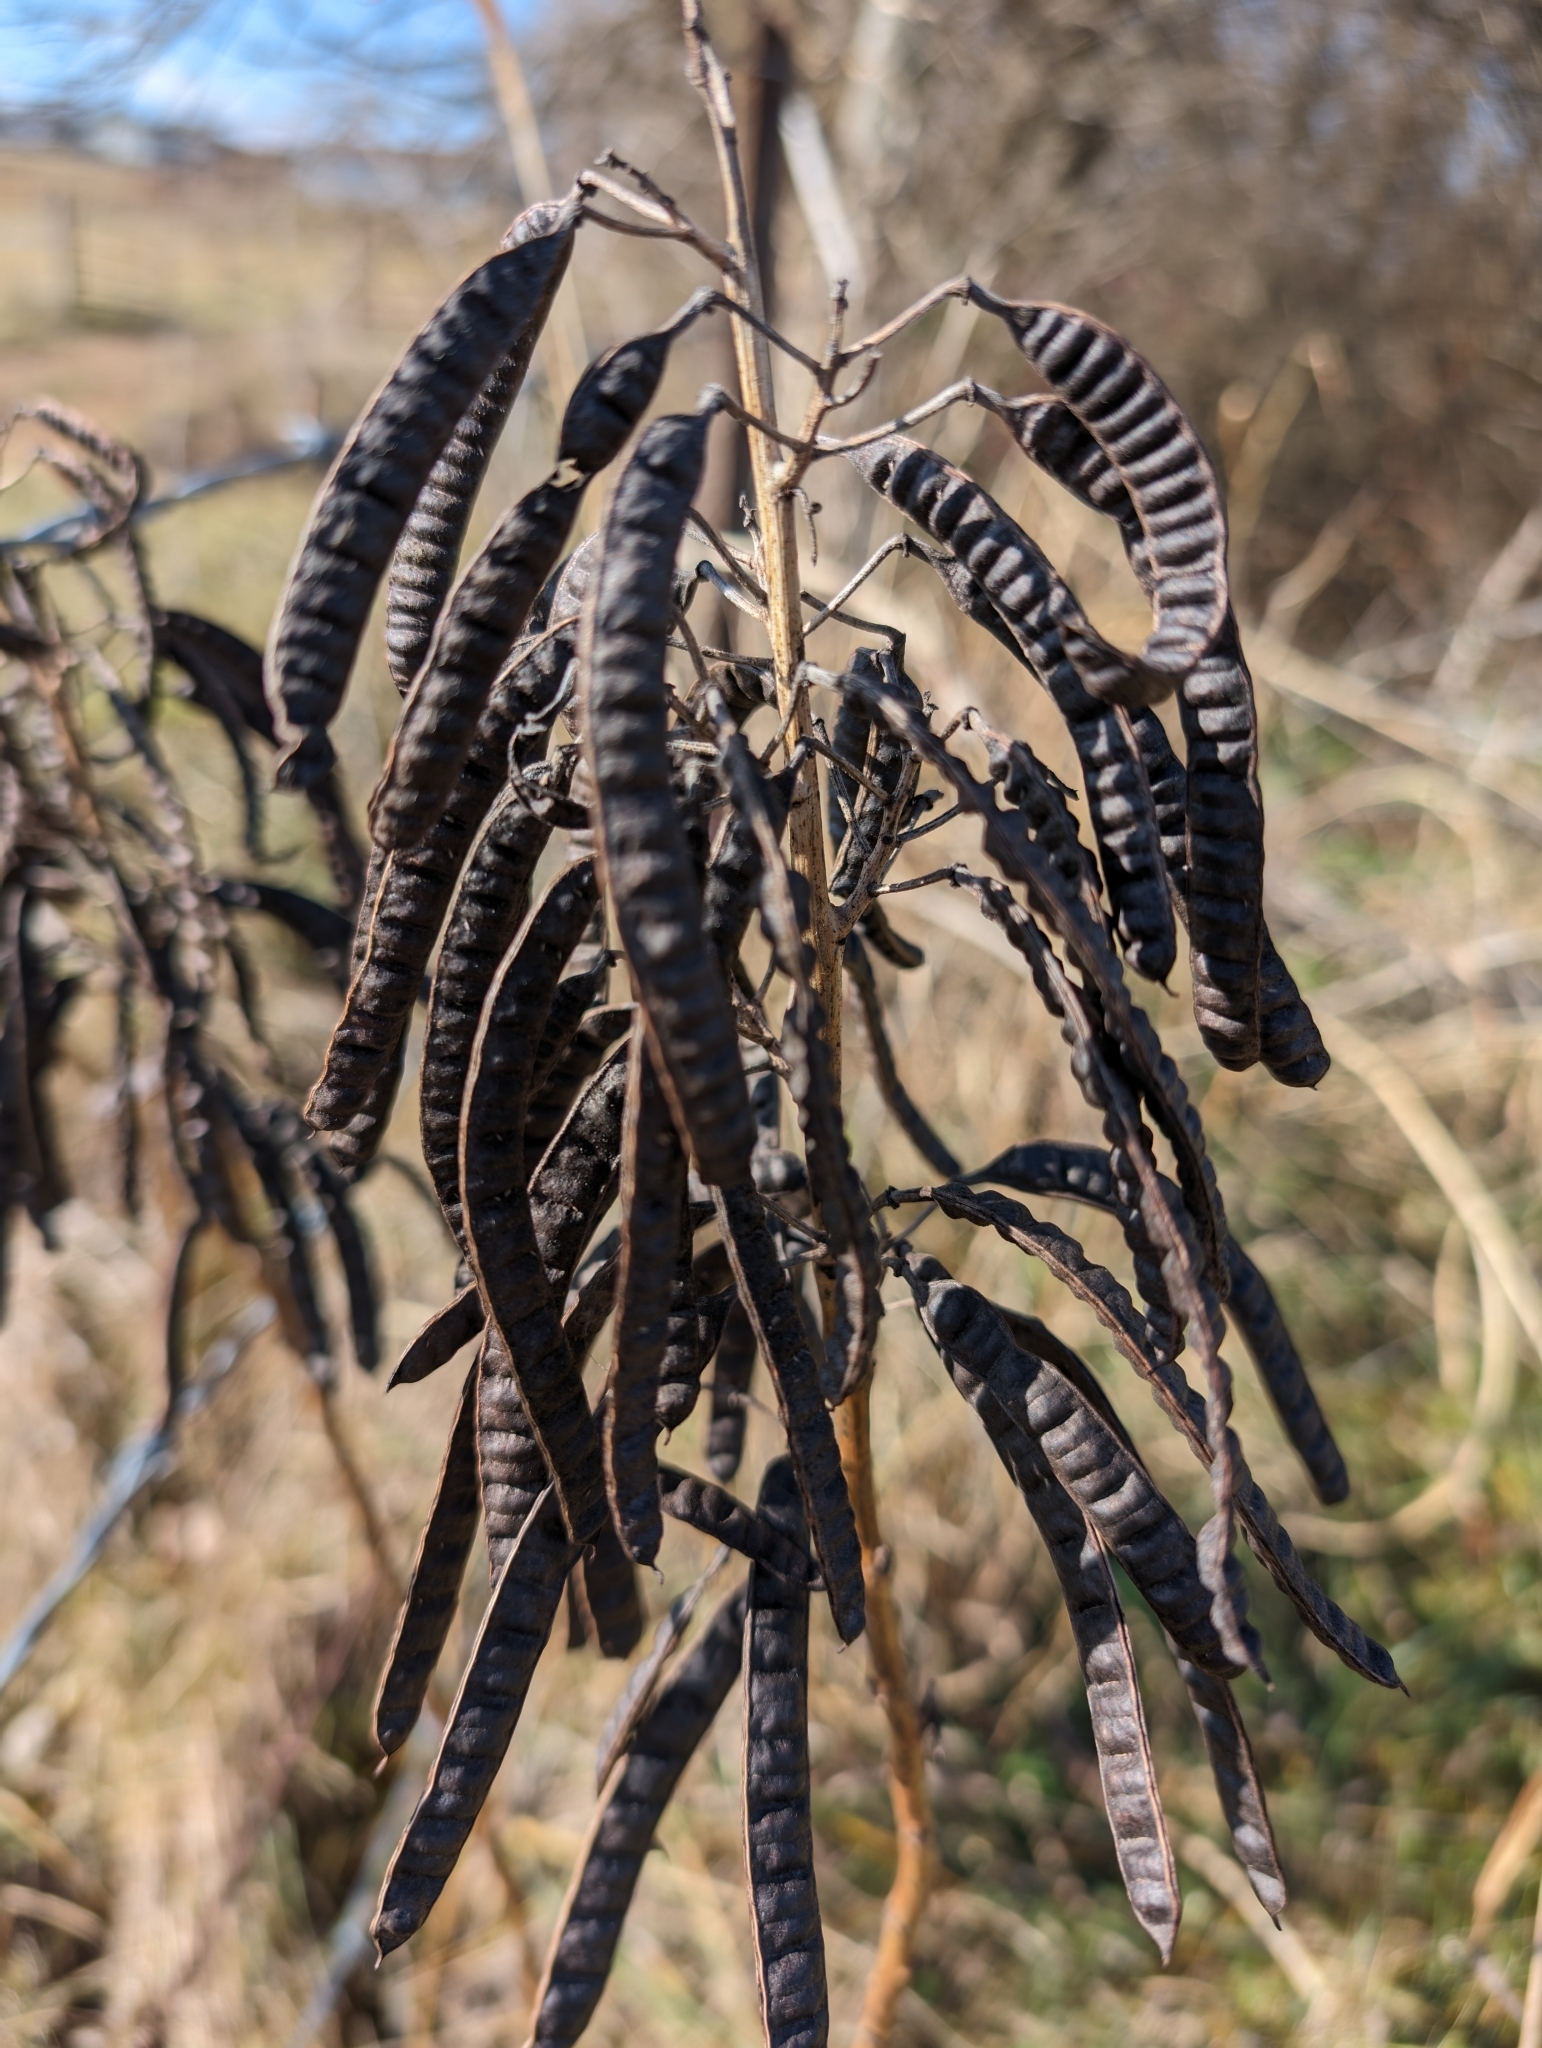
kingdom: Plantae
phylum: Tracheophyta
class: Magnoliopsida
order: Fabales
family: Fabaceae
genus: Senna
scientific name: Senna marilandica
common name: American senna
